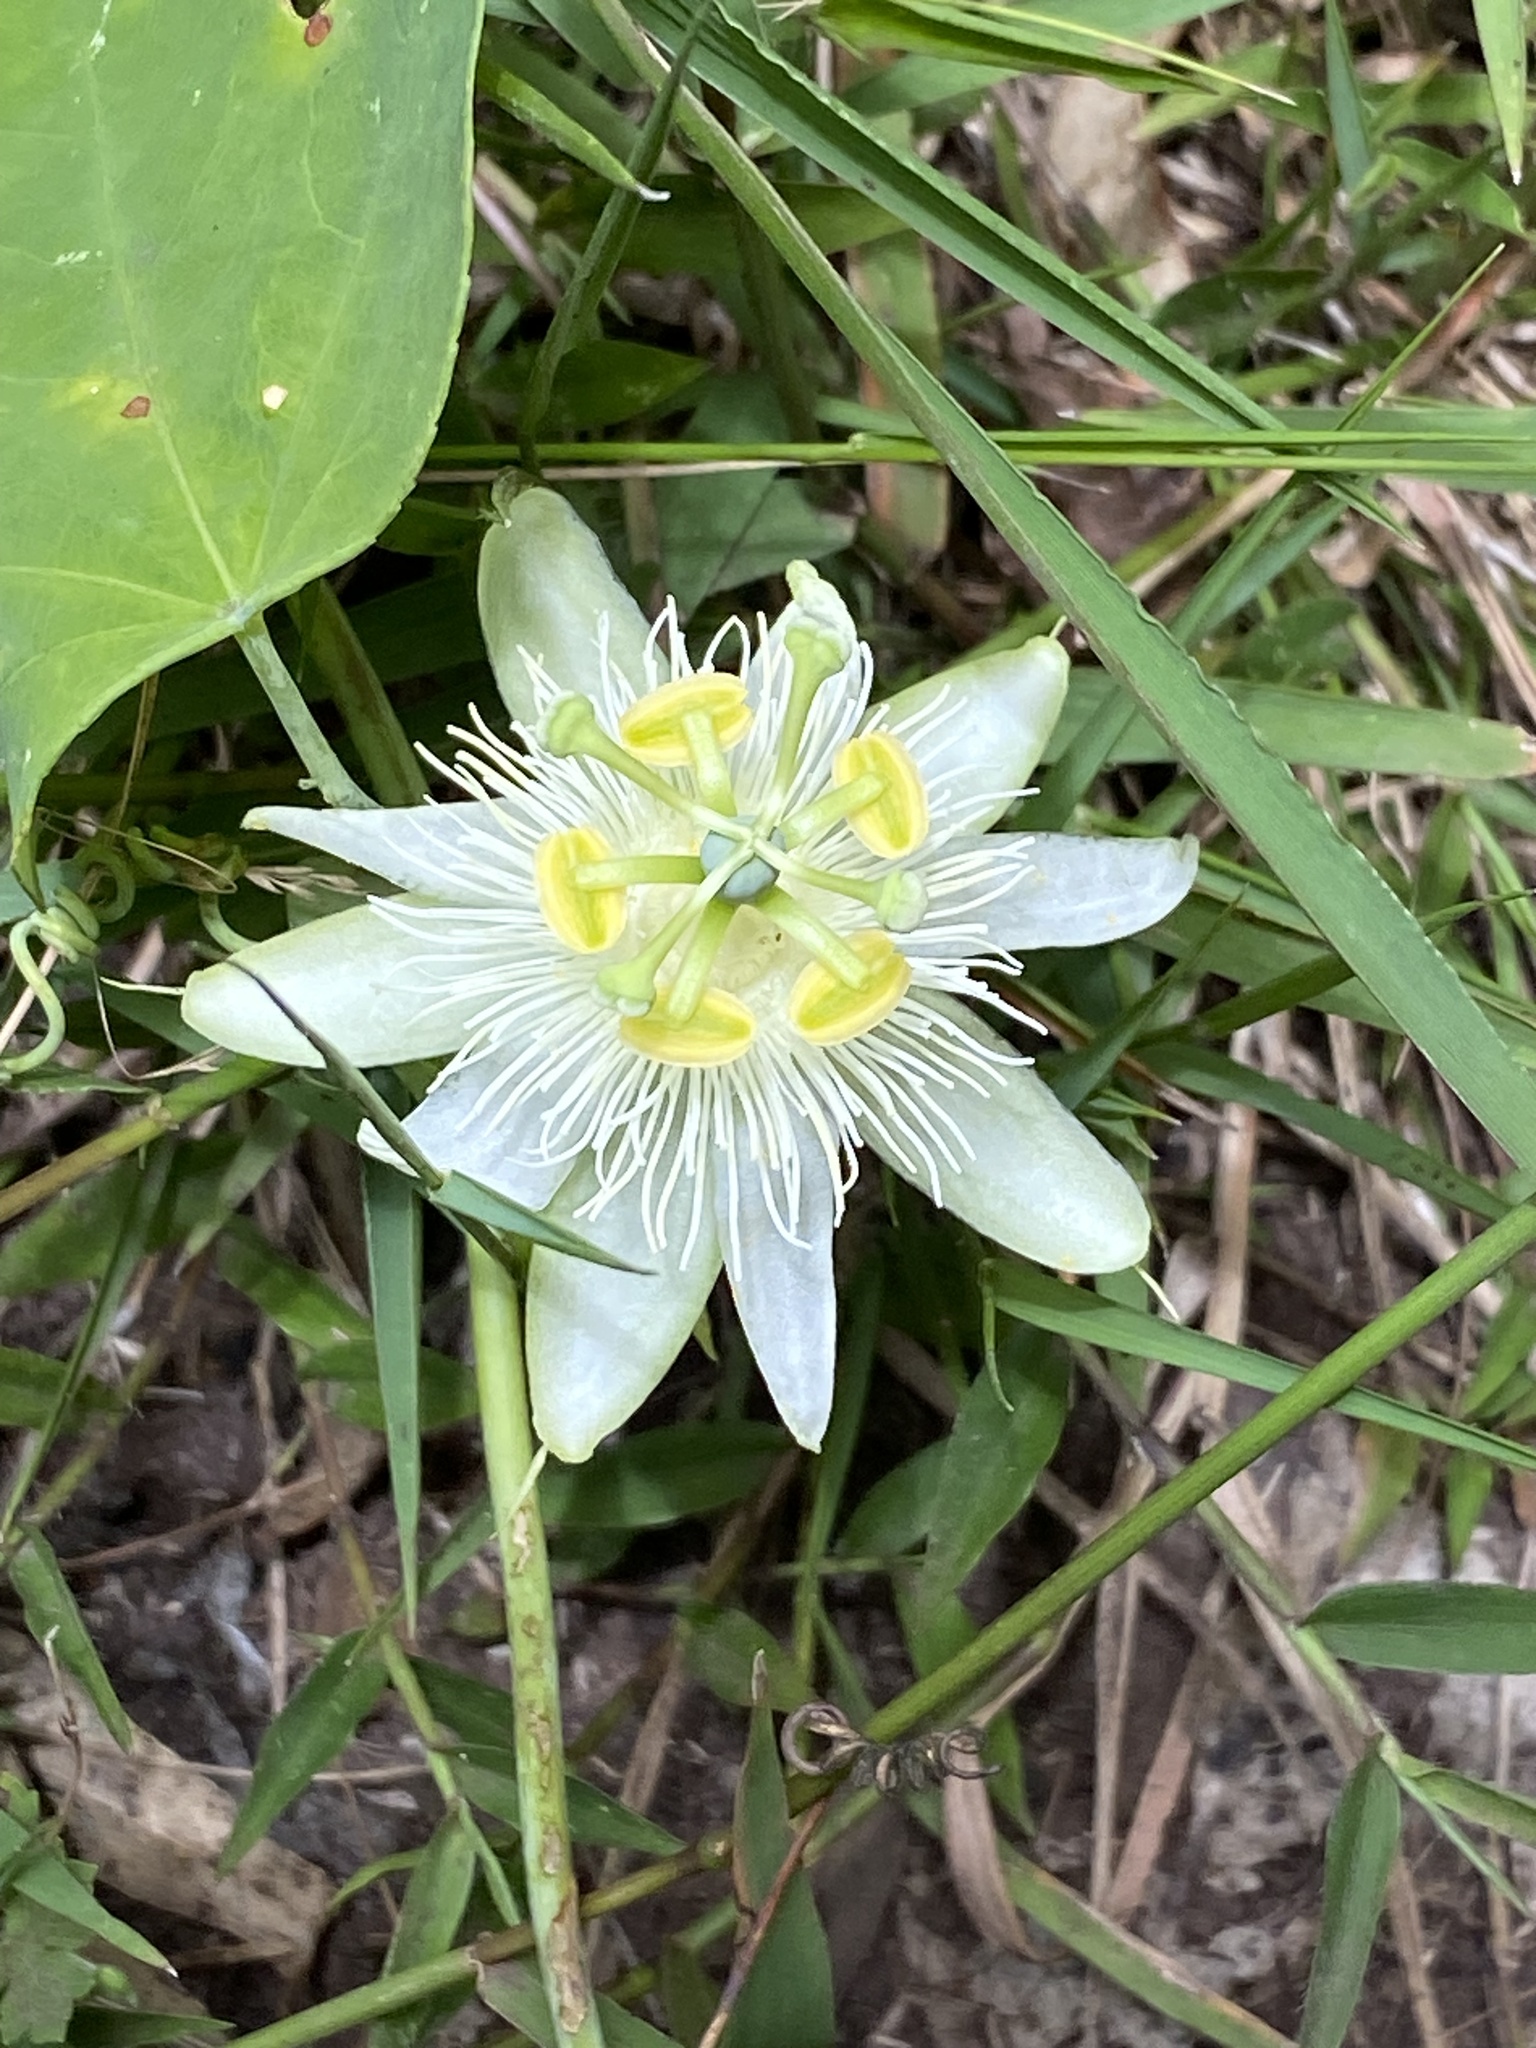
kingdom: Plantae
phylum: Tracheophyta
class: Magnoliopsida
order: Malpighiales
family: Passifloraceae
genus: Passiflora
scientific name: Passiflora subpeltata
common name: White passionflower
